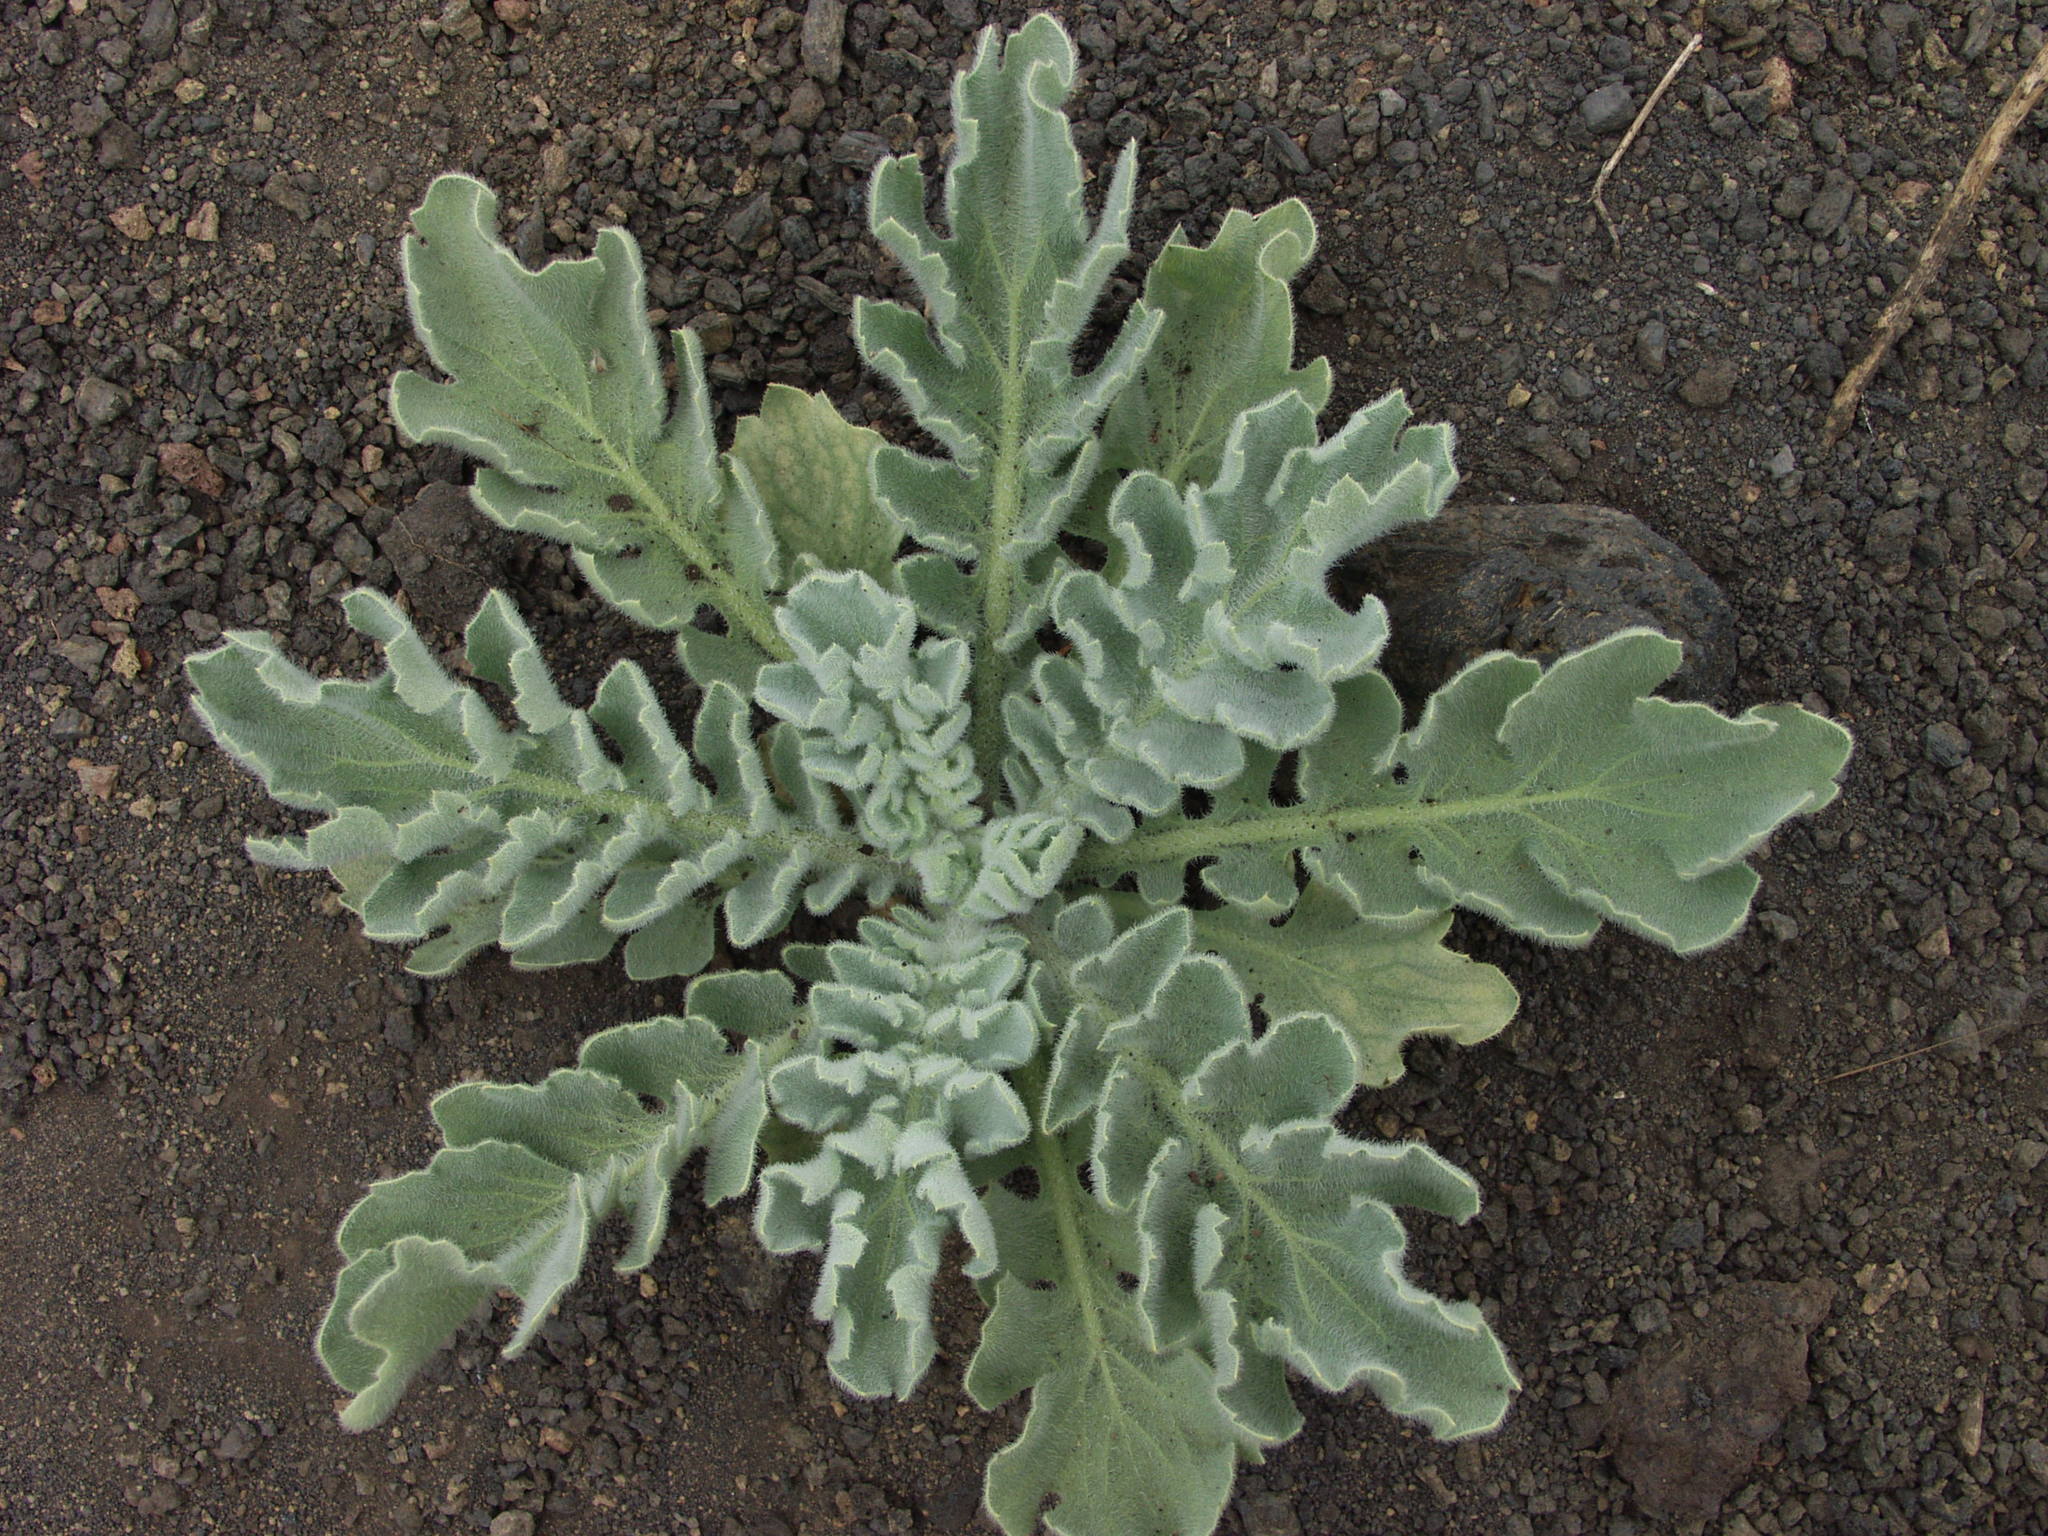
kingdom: Plantae
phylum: Tracheophyta
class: Magnoliopsida
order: Ranunculales
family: Papaveraceae
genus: Glaucium
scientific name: Glaucium flavum
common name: Yellow horned-poppy
